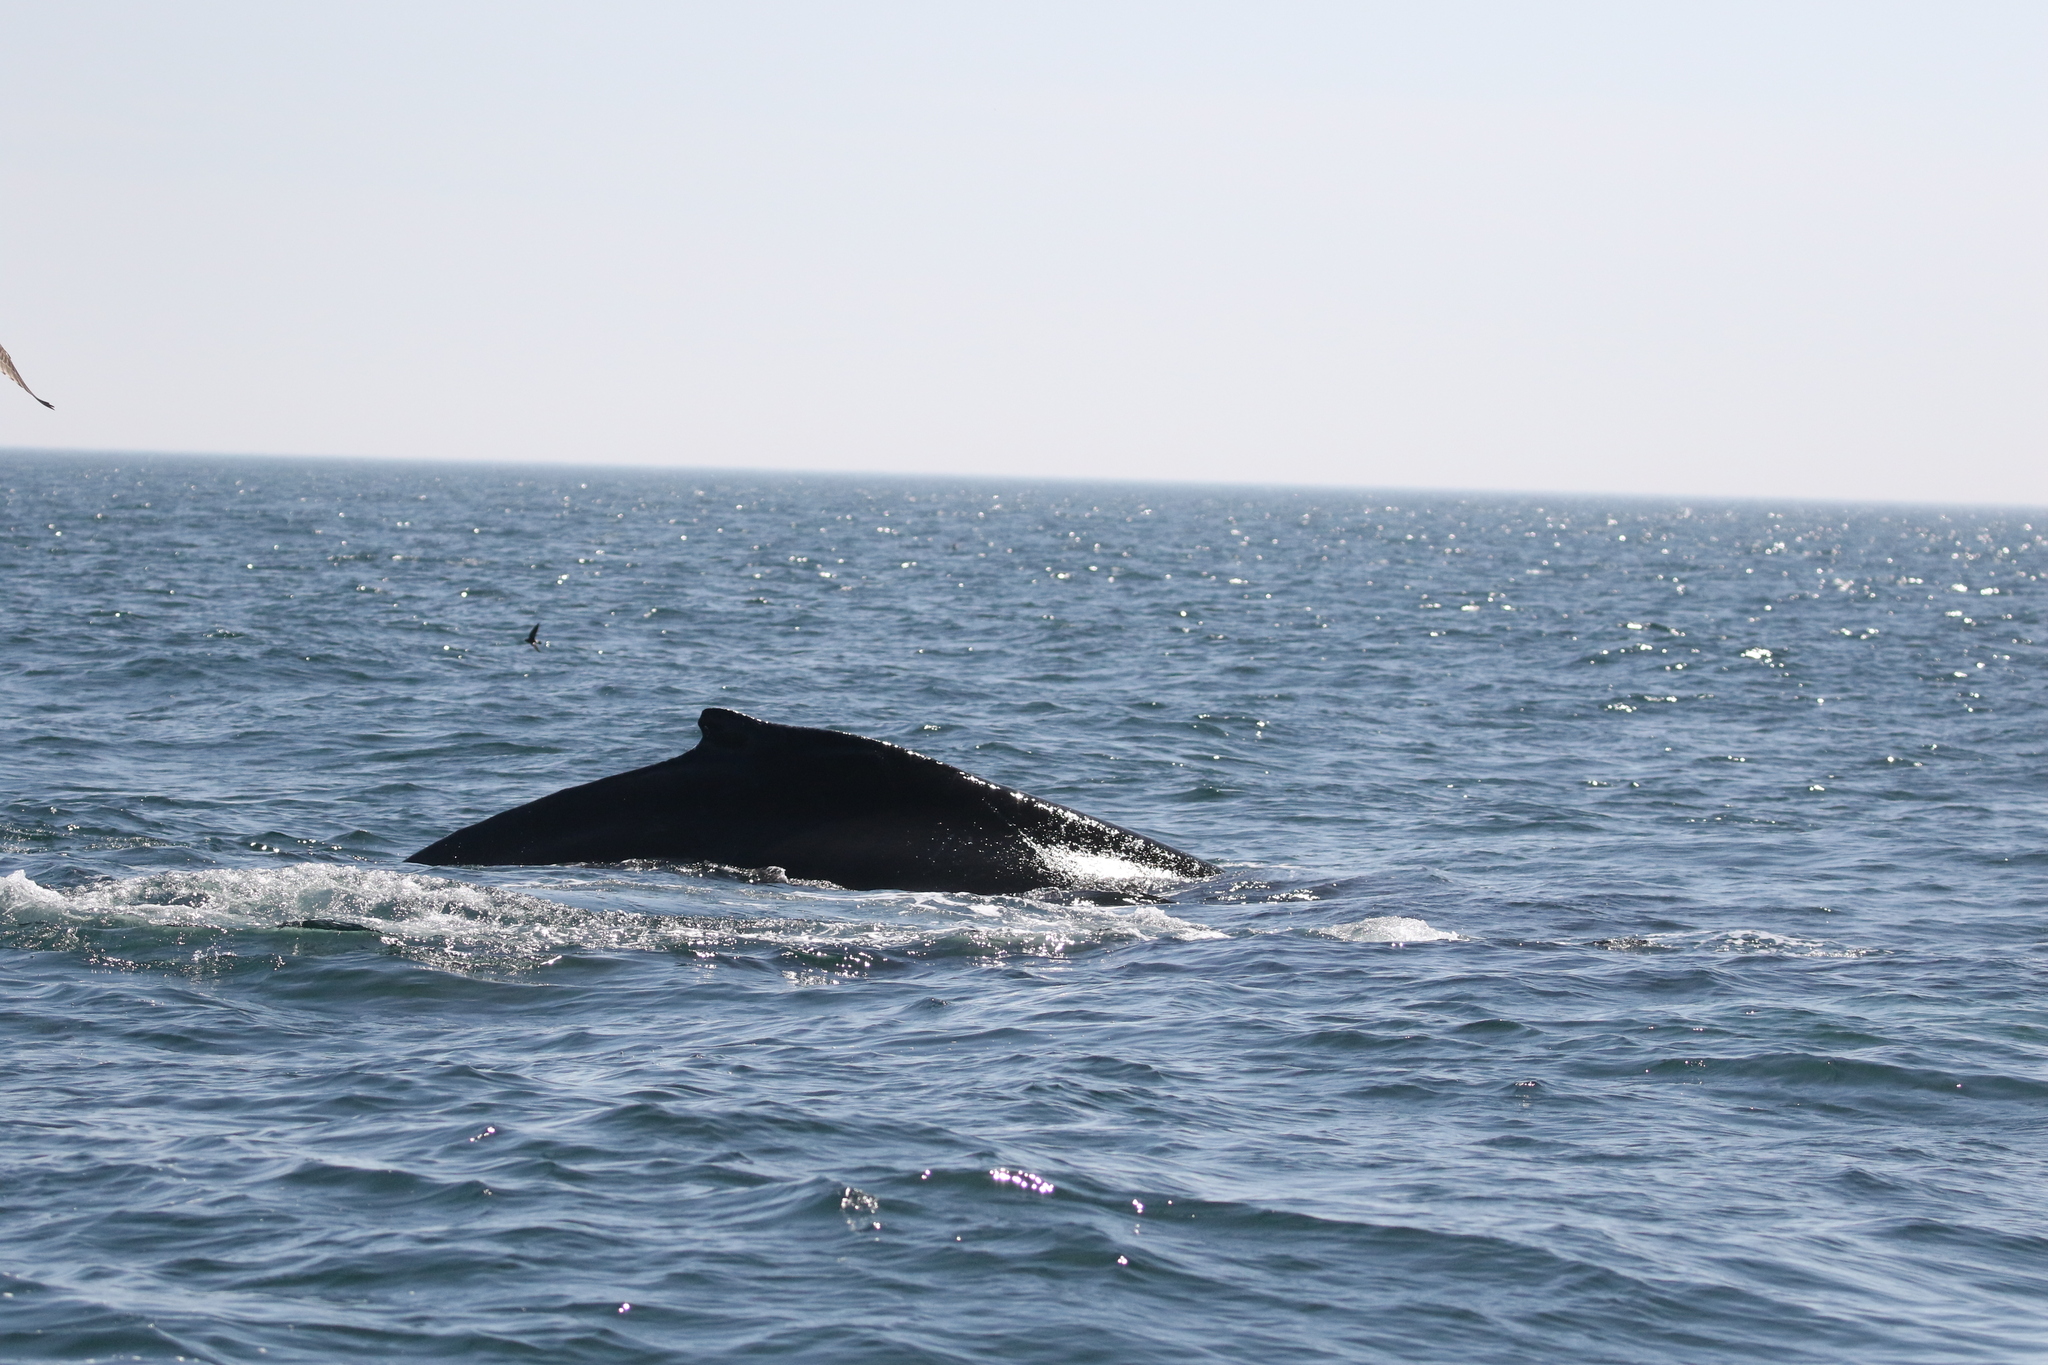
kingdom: Animalia
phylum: Chordata
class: Mammalia
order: Cetacea
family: Balaenopteridae
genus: Megaptera
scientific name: Megaptera novaeangliae
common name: Humpback whale
